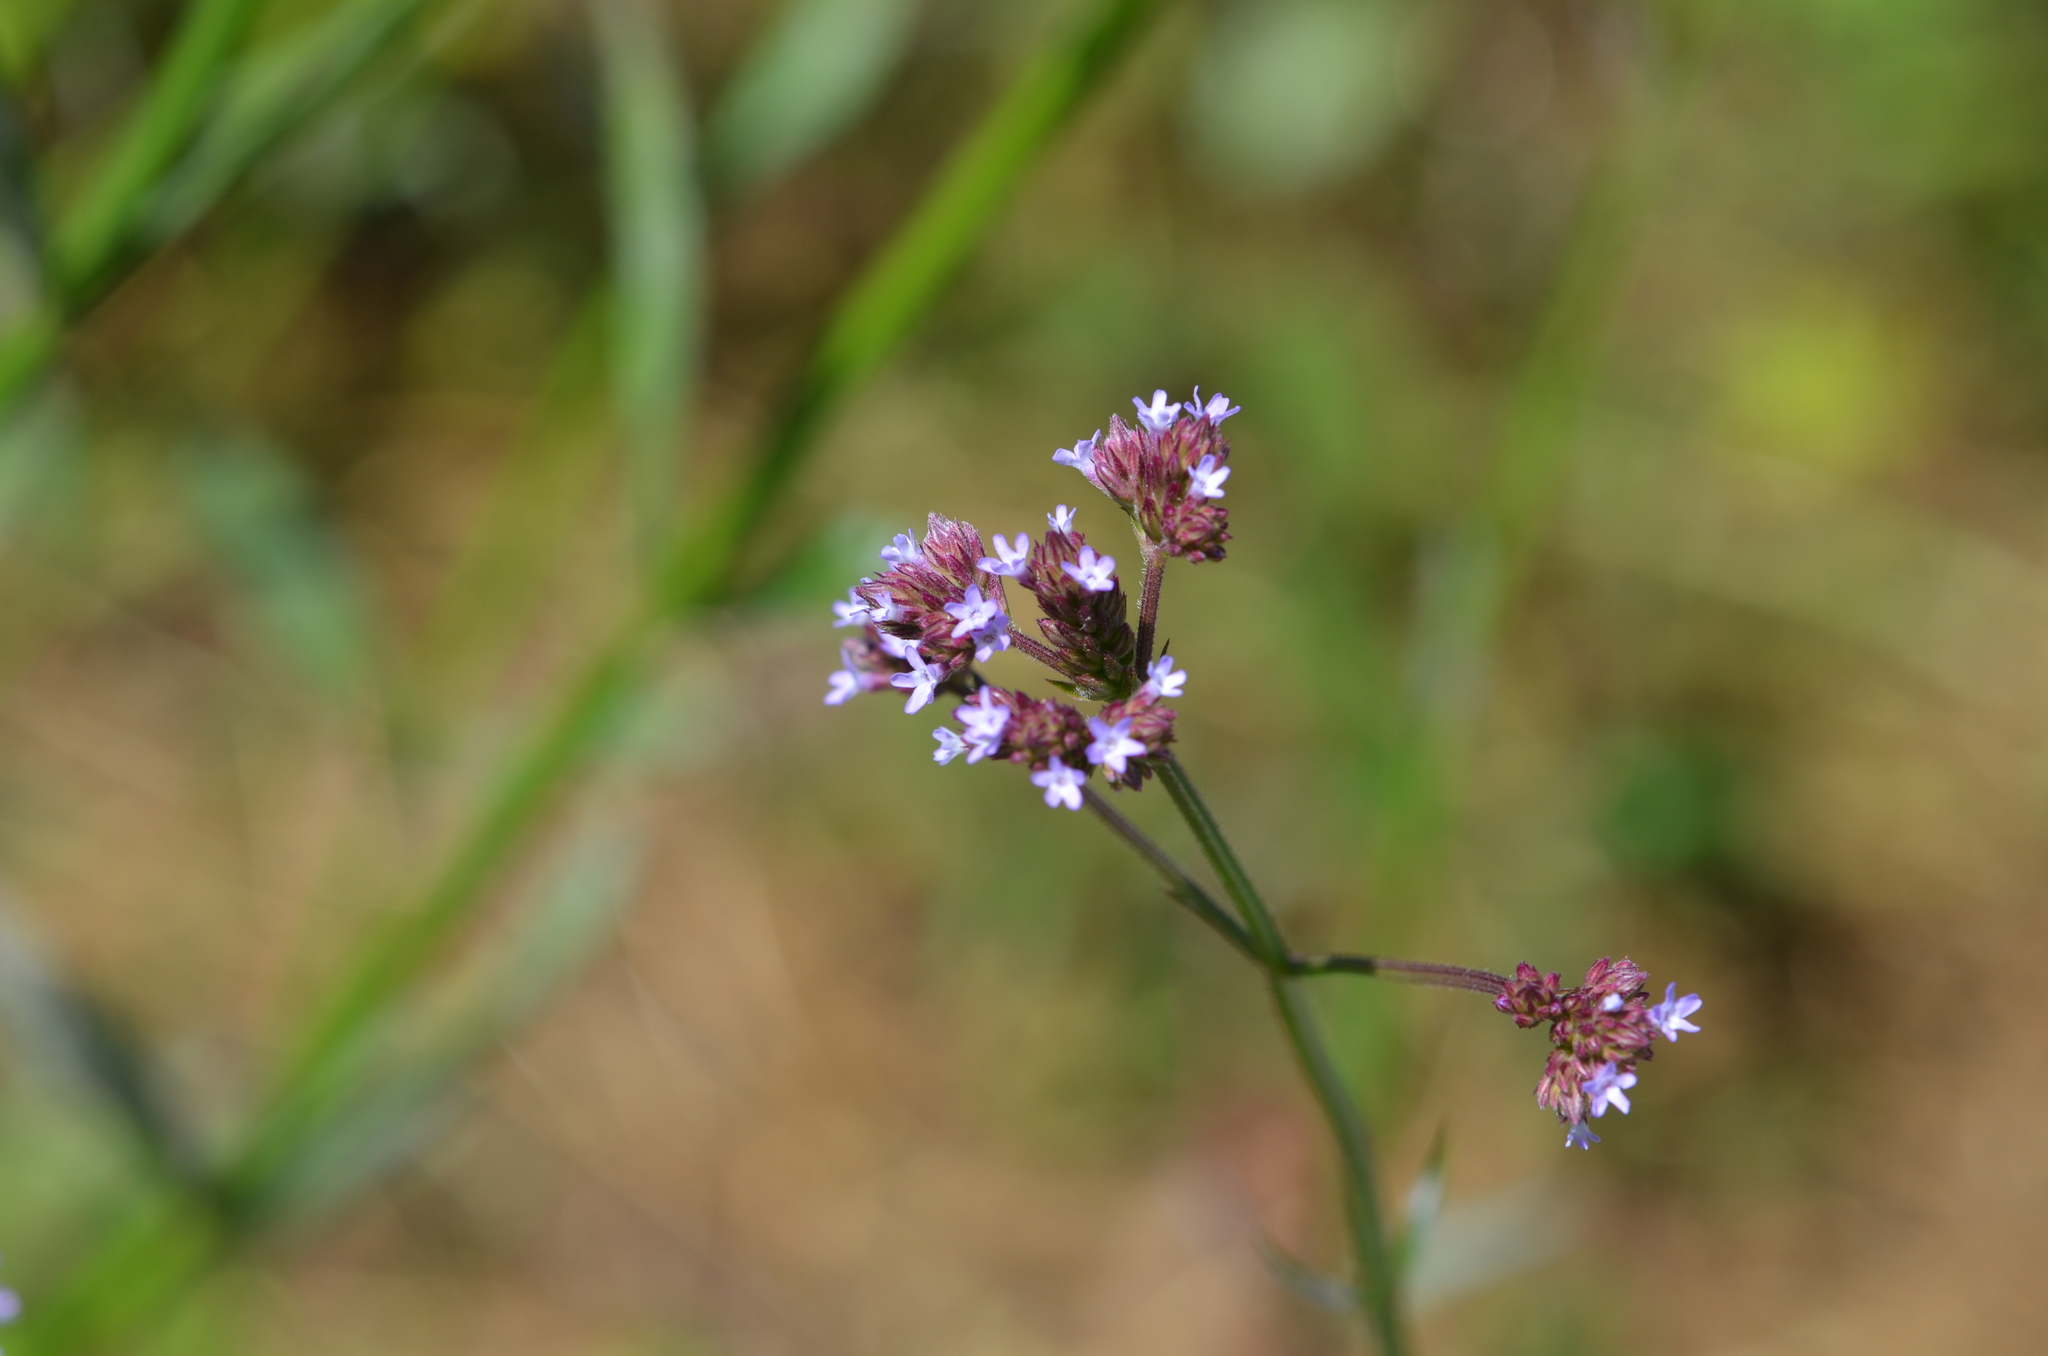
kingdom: Plantae
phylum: Tracheophyta
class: Magnoliopsida
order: Lamiales
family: Verbenaceae
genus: Verbena
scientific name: Verbena brasiliensis
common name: Brazilian vervain
